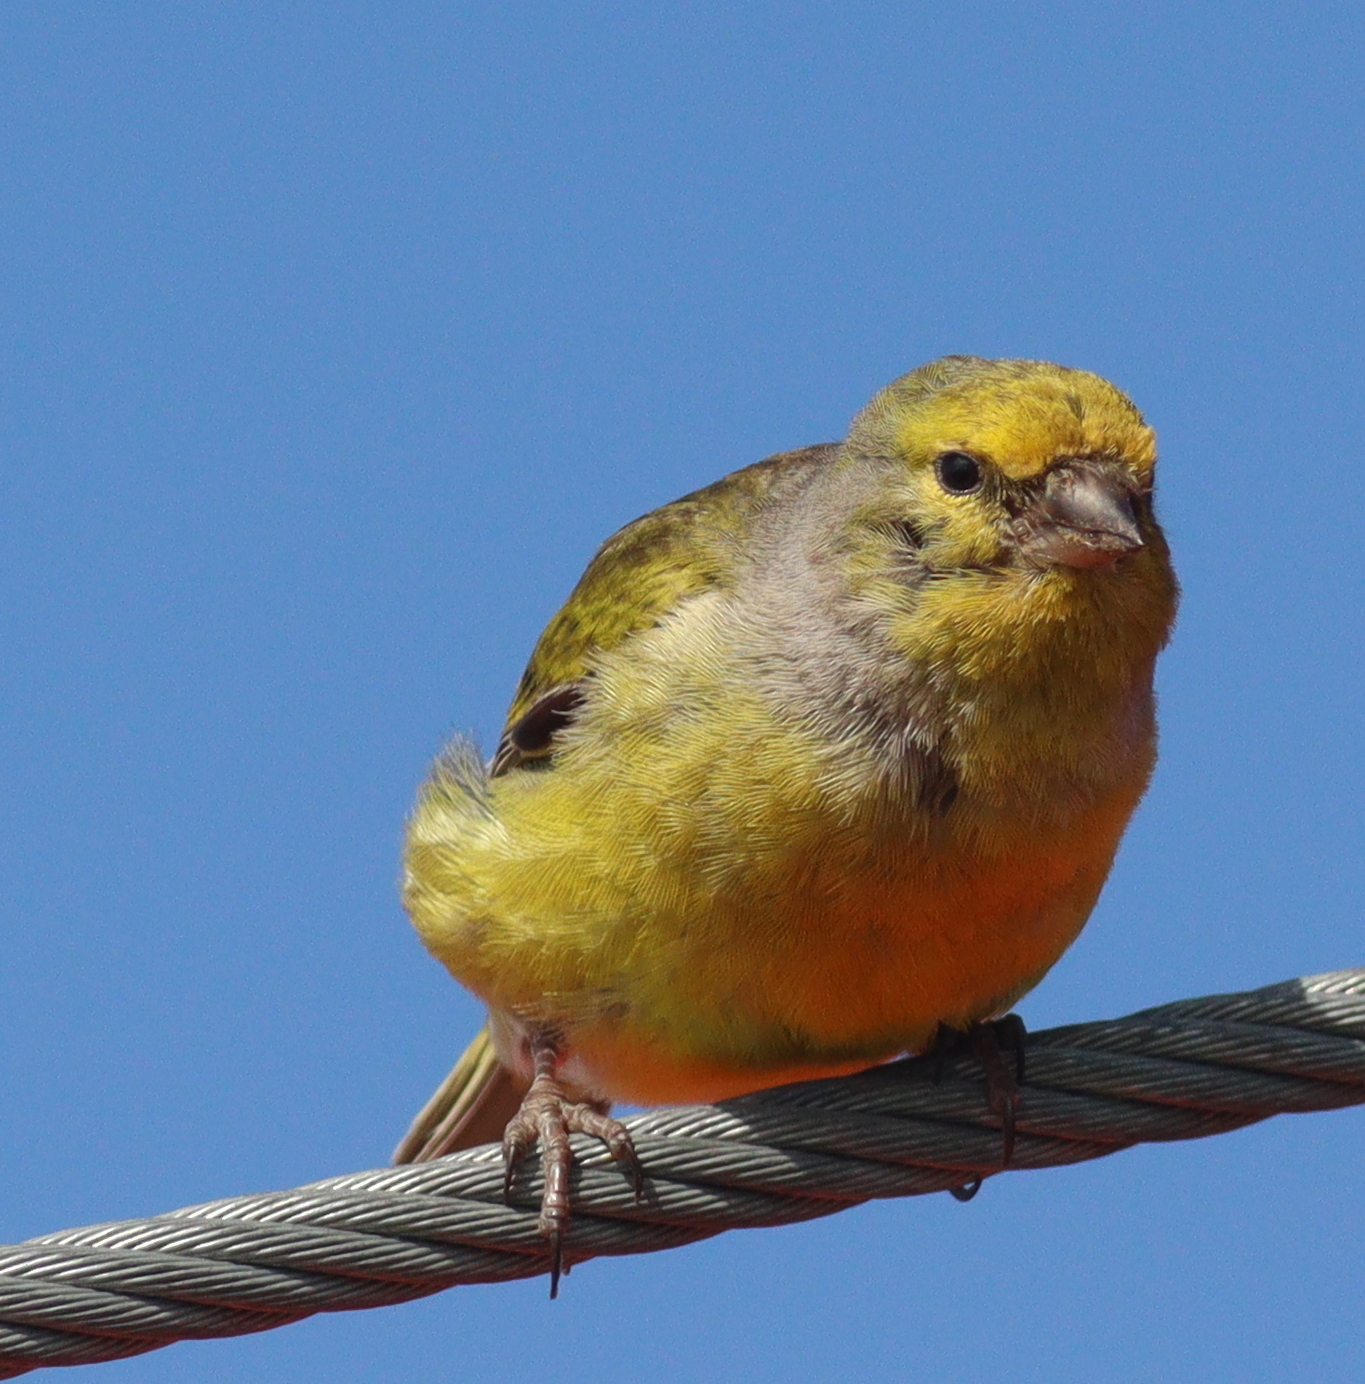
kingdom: Animalia
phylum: Chordata
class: Aves
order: Passeriformes
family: Fringillidae
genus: Carduelis
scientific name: Carduelis citrinella
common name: Citril finch
